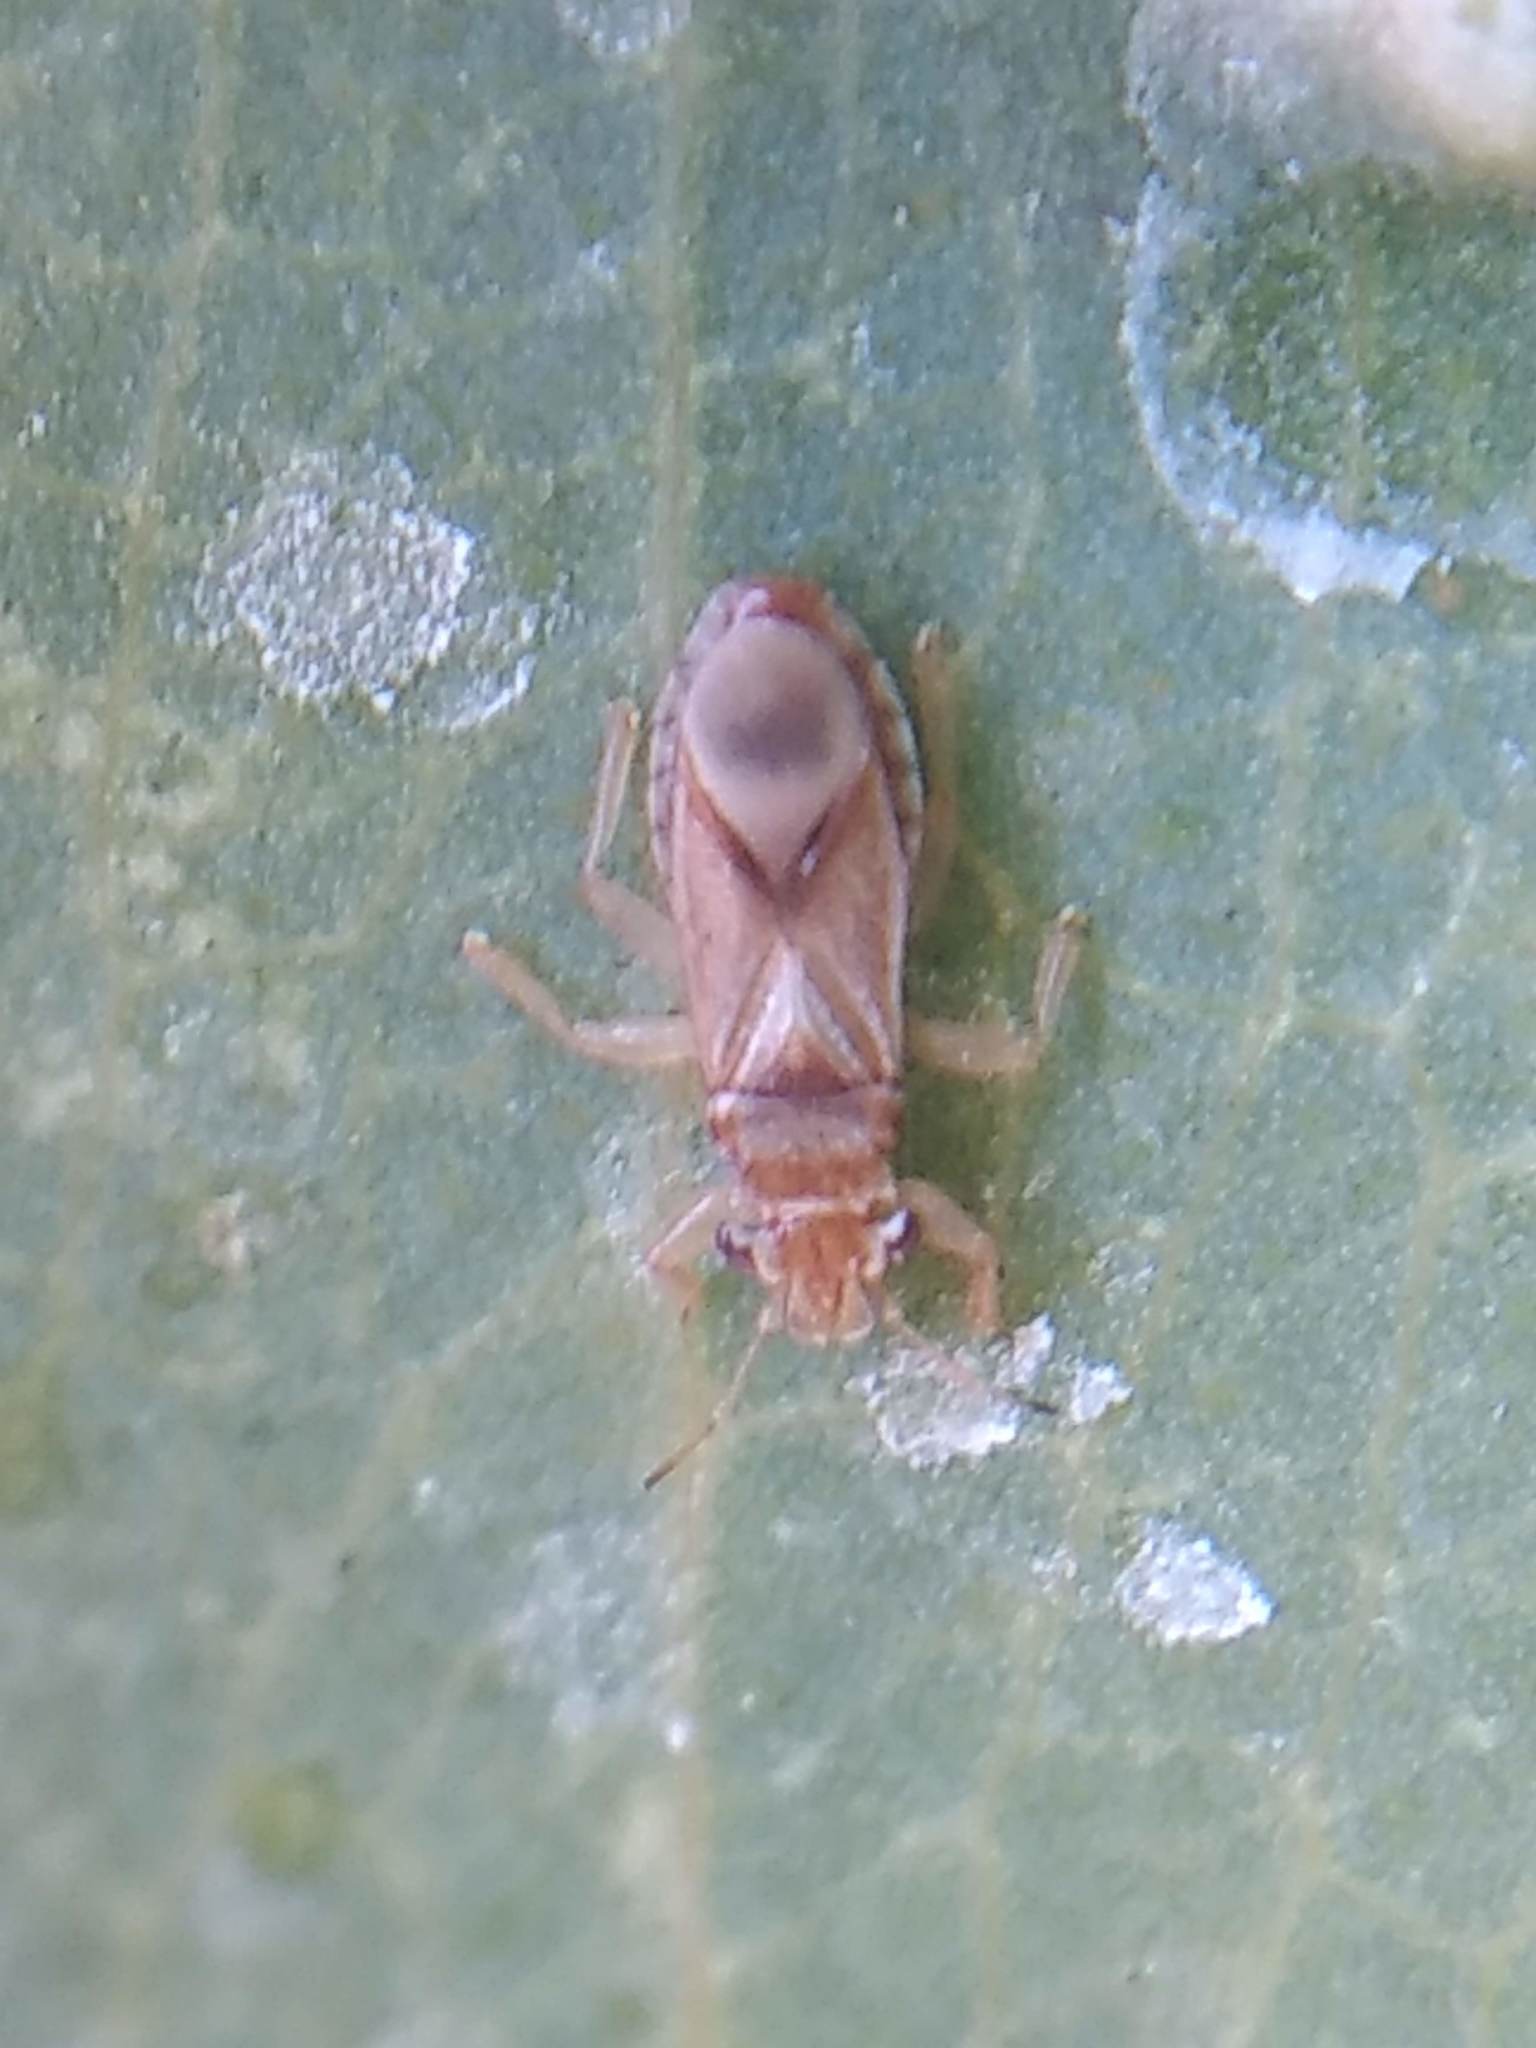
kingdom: Animalia
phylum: Arthropoda
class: Insecta
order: Hemiptera
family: Thaumastocoridae
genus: Thaumastocoris
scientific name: Thaumastocoris peregrinus
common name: Bronze bug
